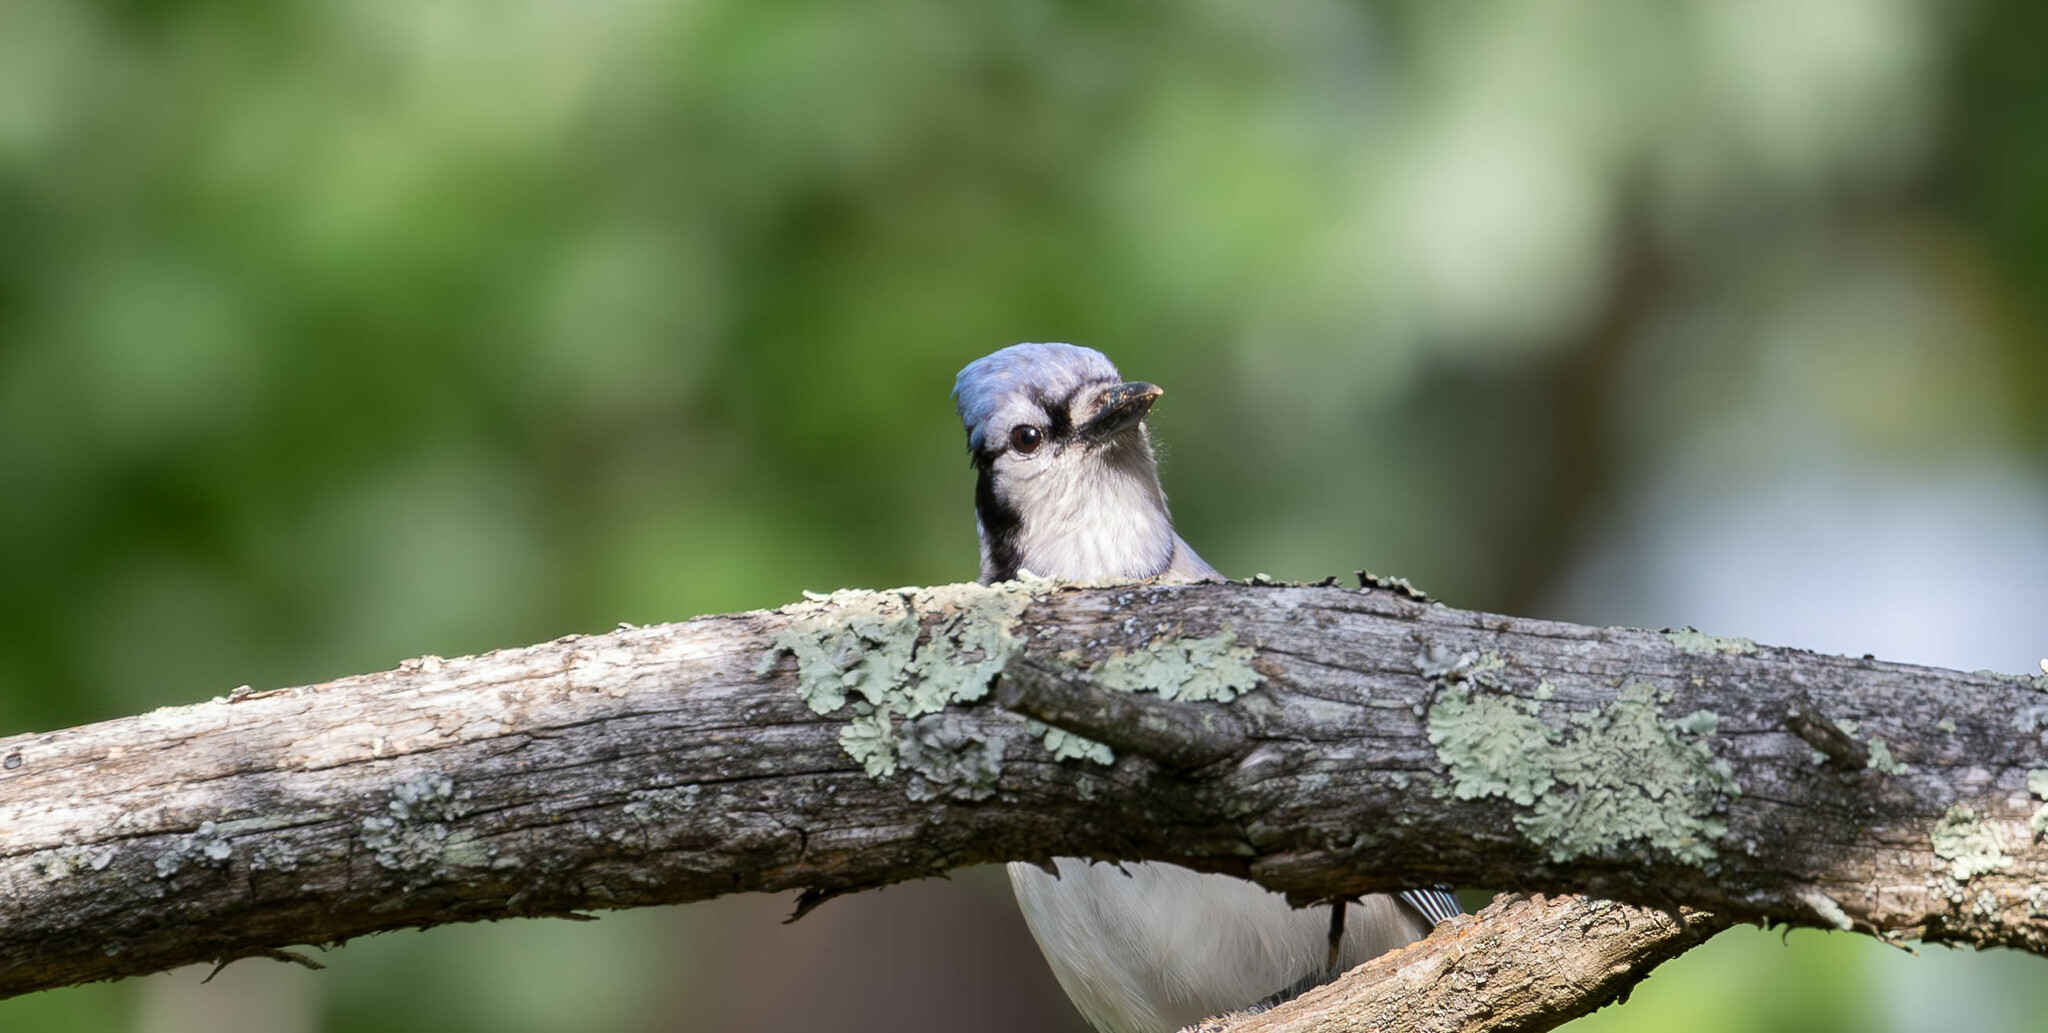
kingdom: Animalia
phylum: Chordata
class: Aves
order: Passeriformes
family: Corvidae
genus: Cyanocitta
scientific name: Cyanocitta cristata
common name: Blue jay
